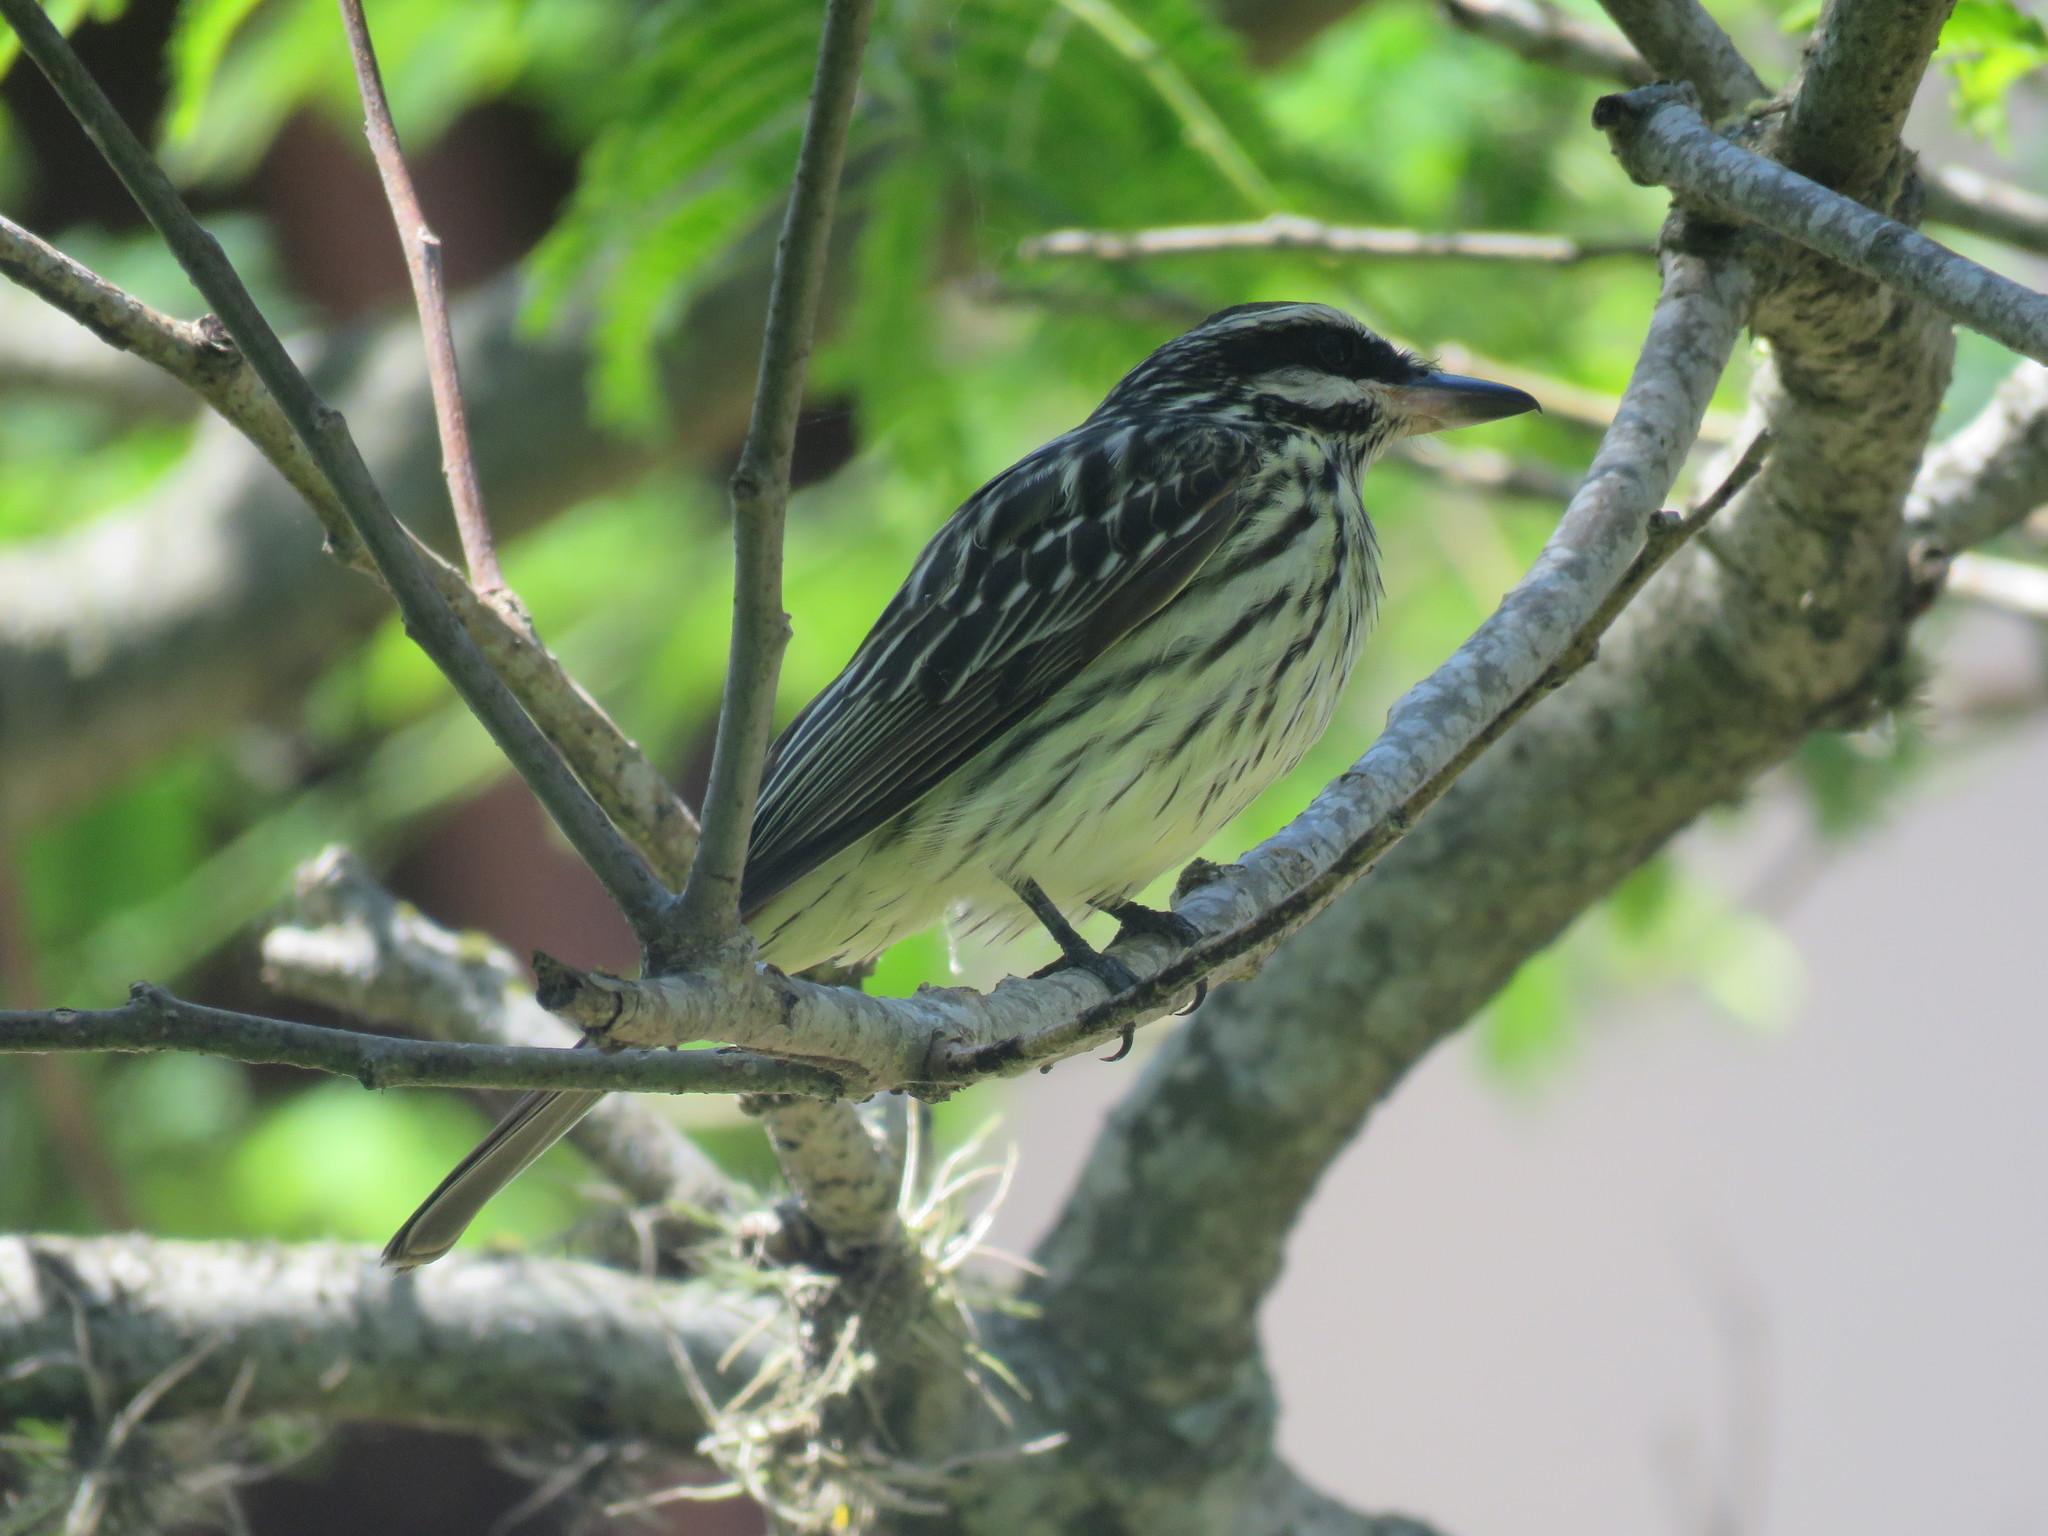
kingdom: Animalia
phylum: Chordata
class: Aves
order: Passeriformes
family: Tyrannidae
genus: Myiodynastes
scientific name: Myiodynastes maculatus
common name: Streaked flycatcher
